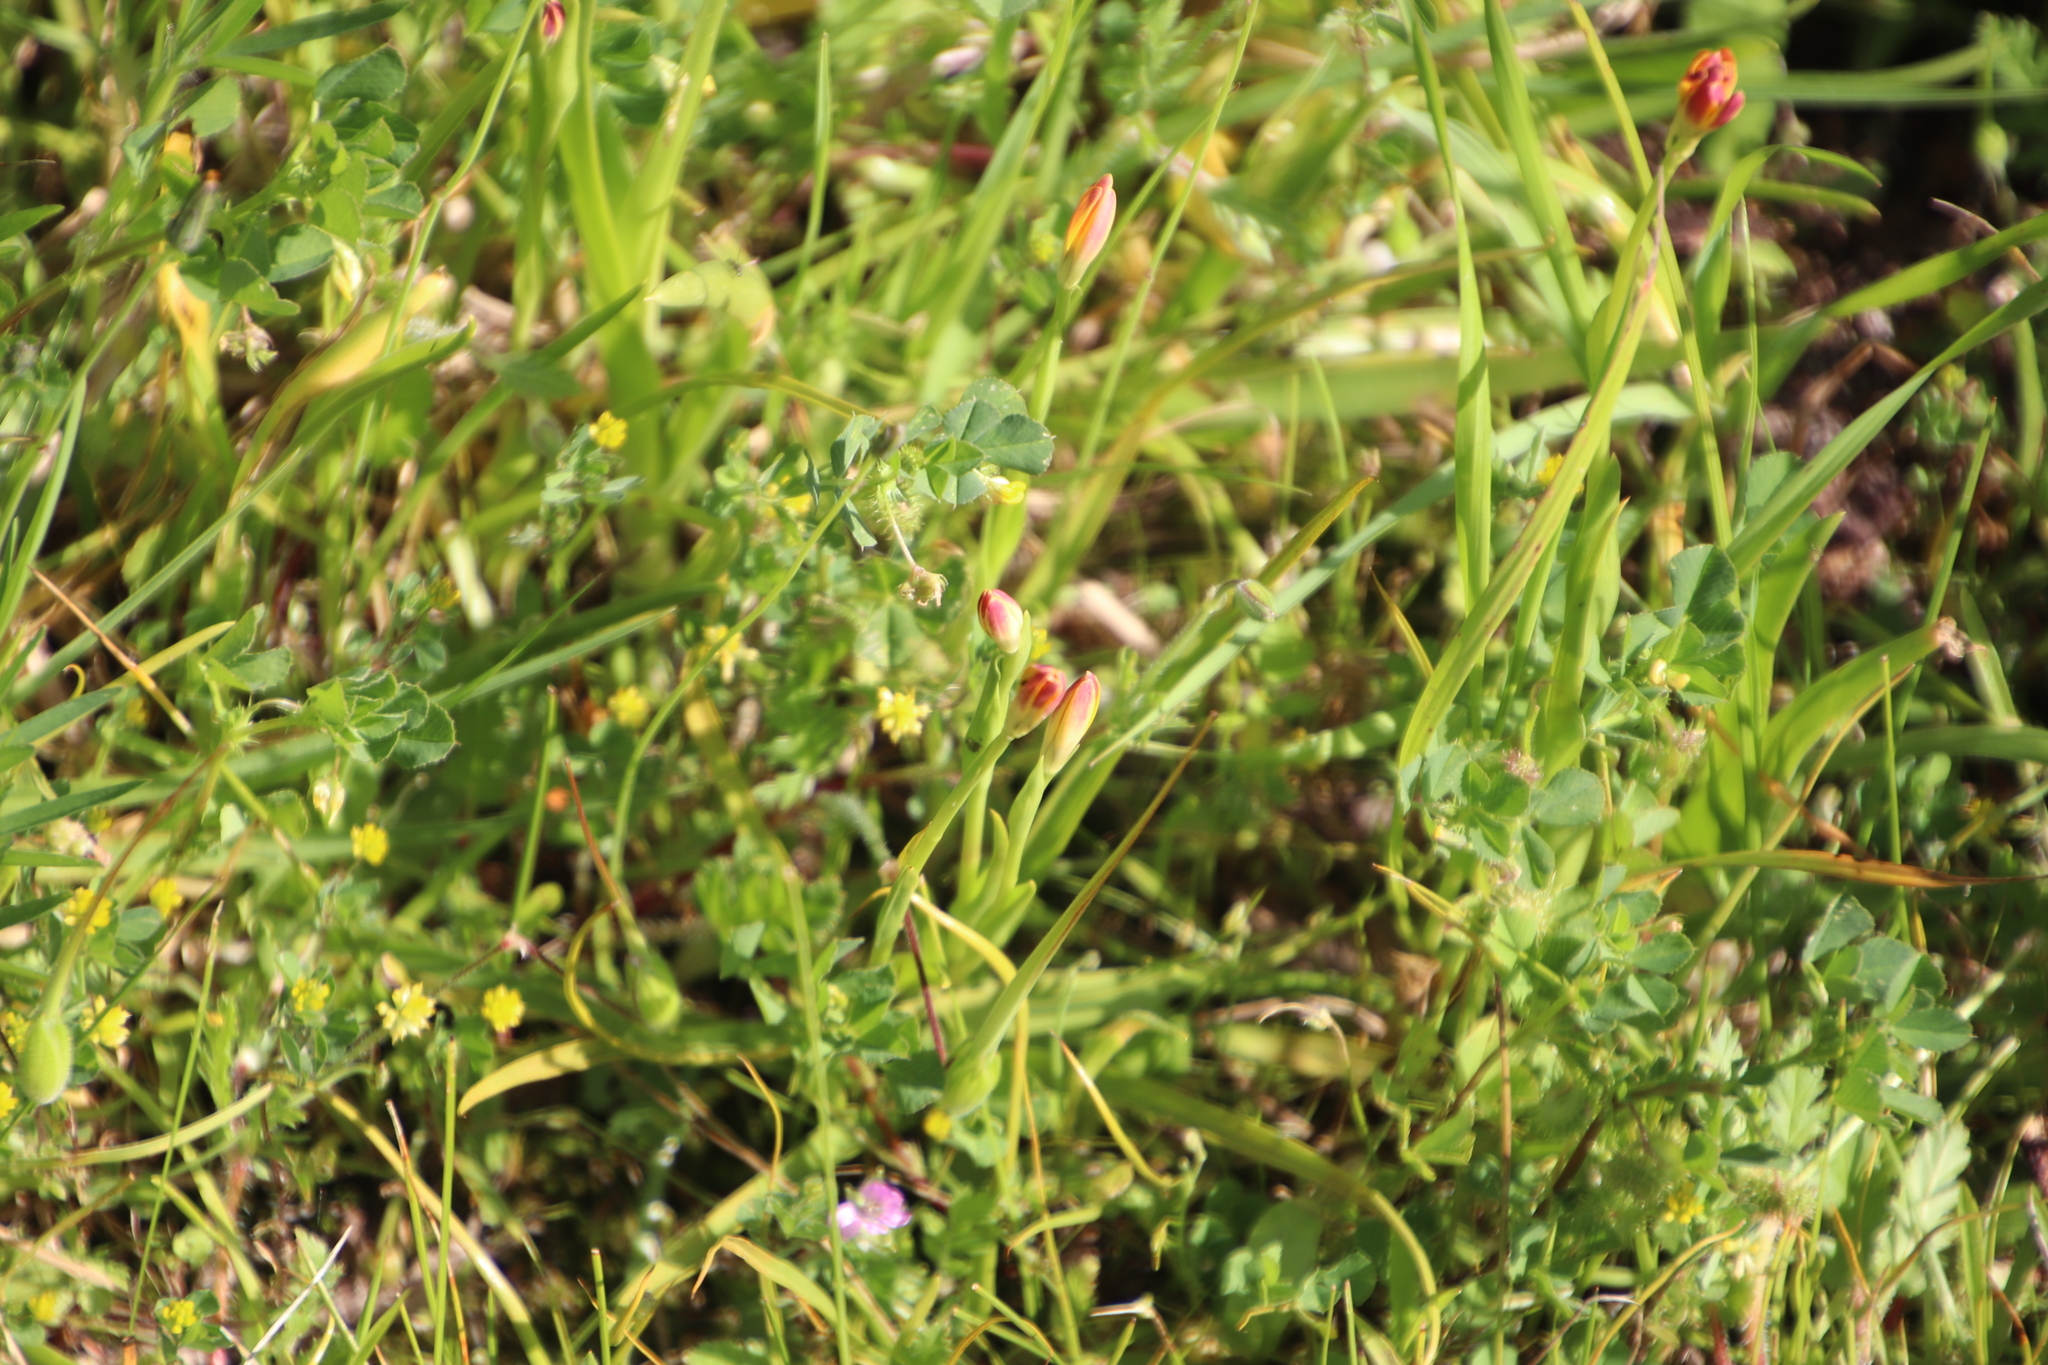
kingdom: Plantae
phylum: Tracheophyta
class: Liliopsida
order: Liliales
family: Colchicaceae
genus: Baeometra
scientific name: Baeometra uniflora
